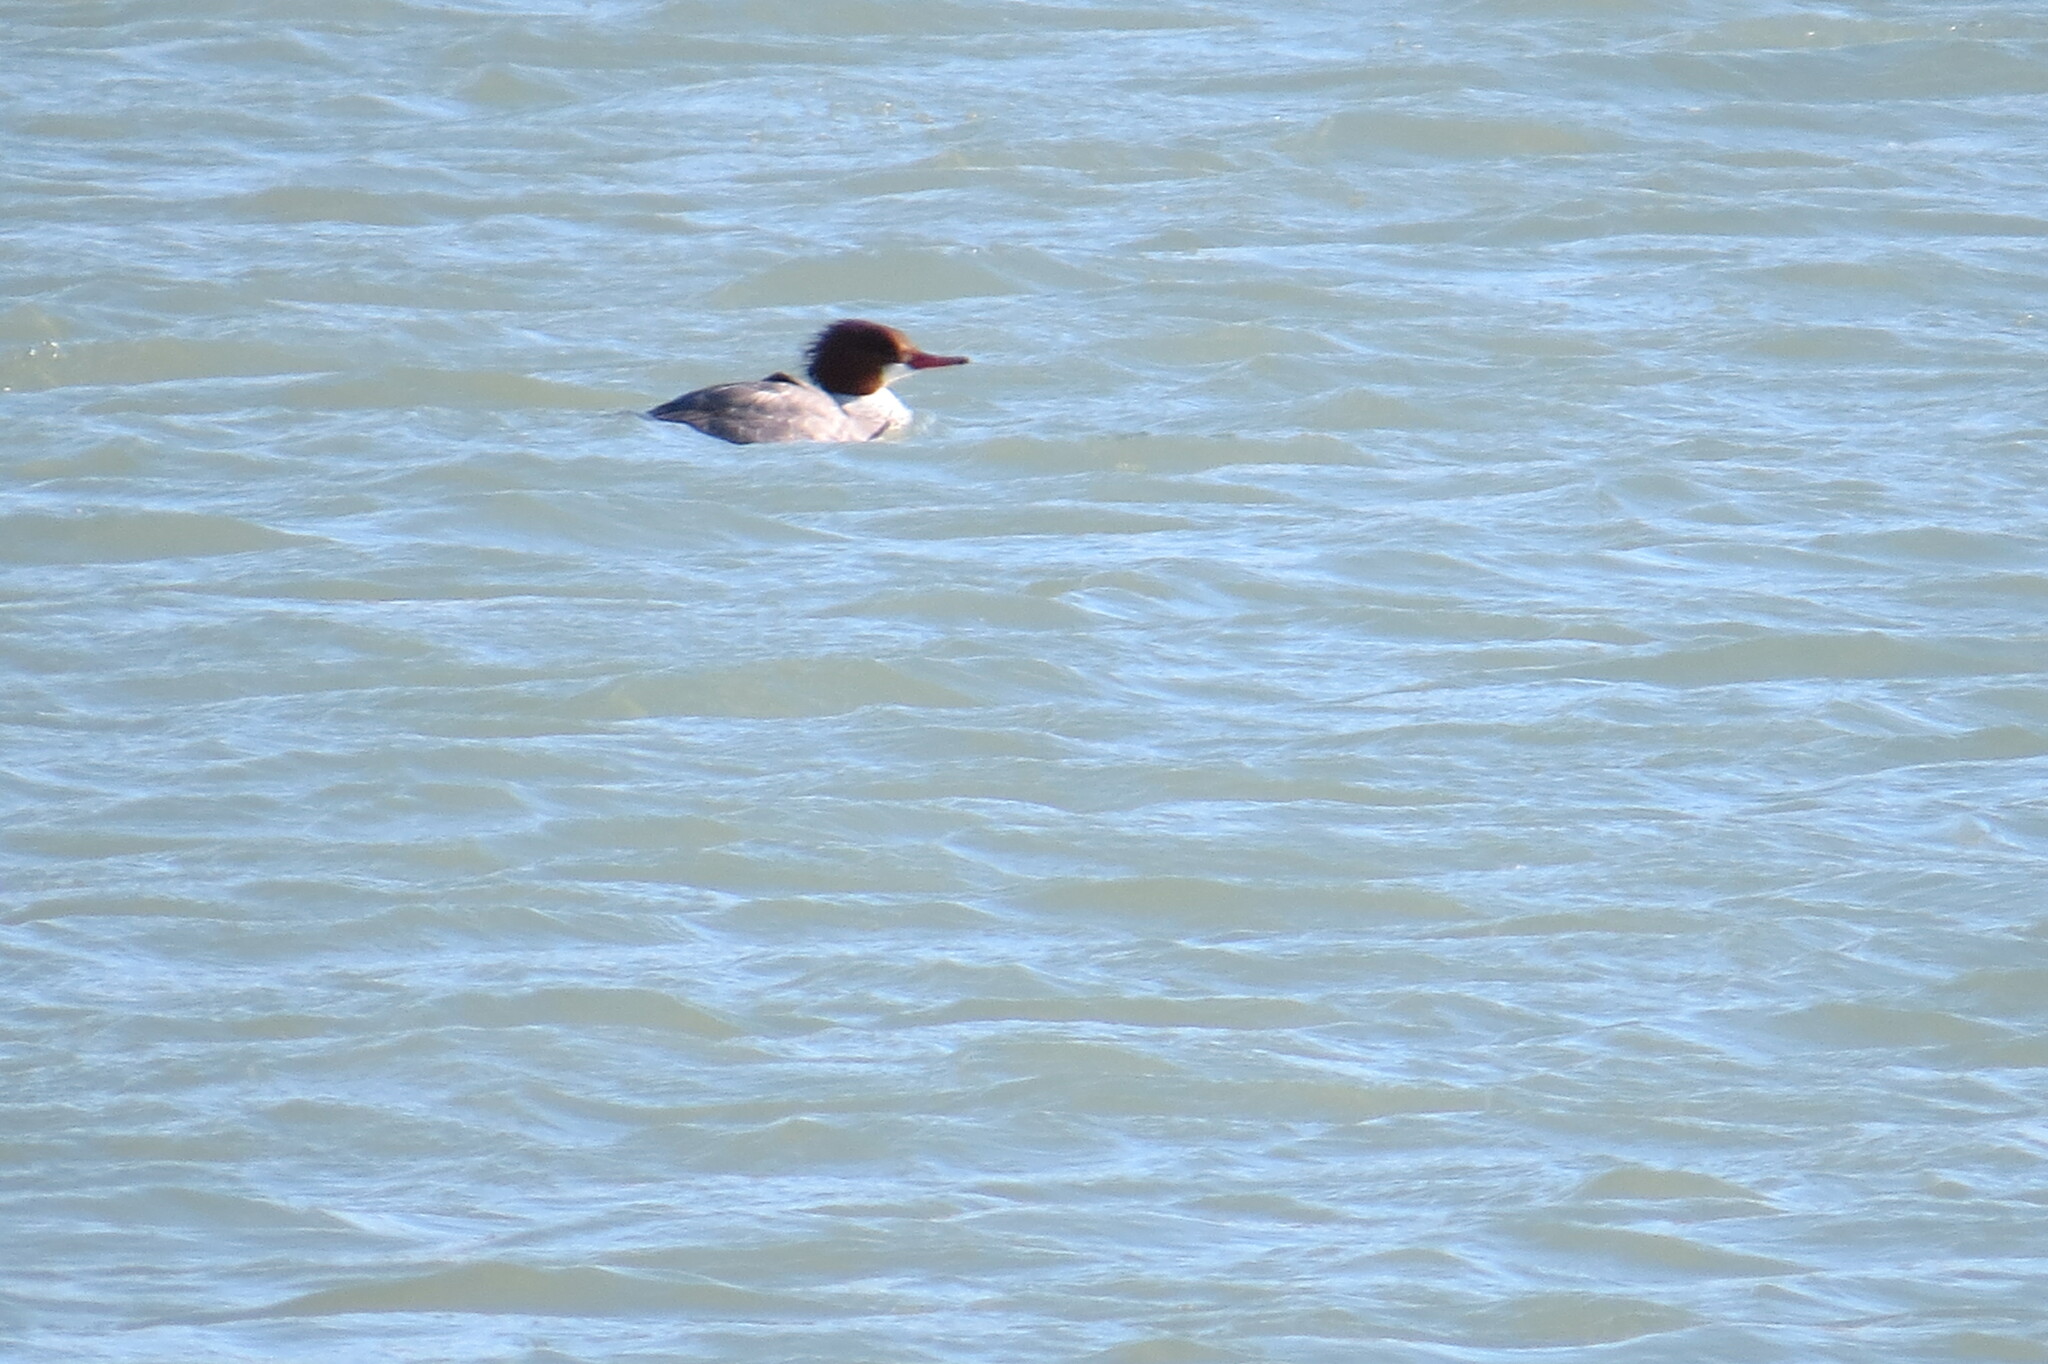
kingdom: Animalia
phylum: Chordata
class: Aves
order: Anseriformes
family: Anatidae
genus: Mergus
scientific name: Mergus merganser
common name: Common merganser
